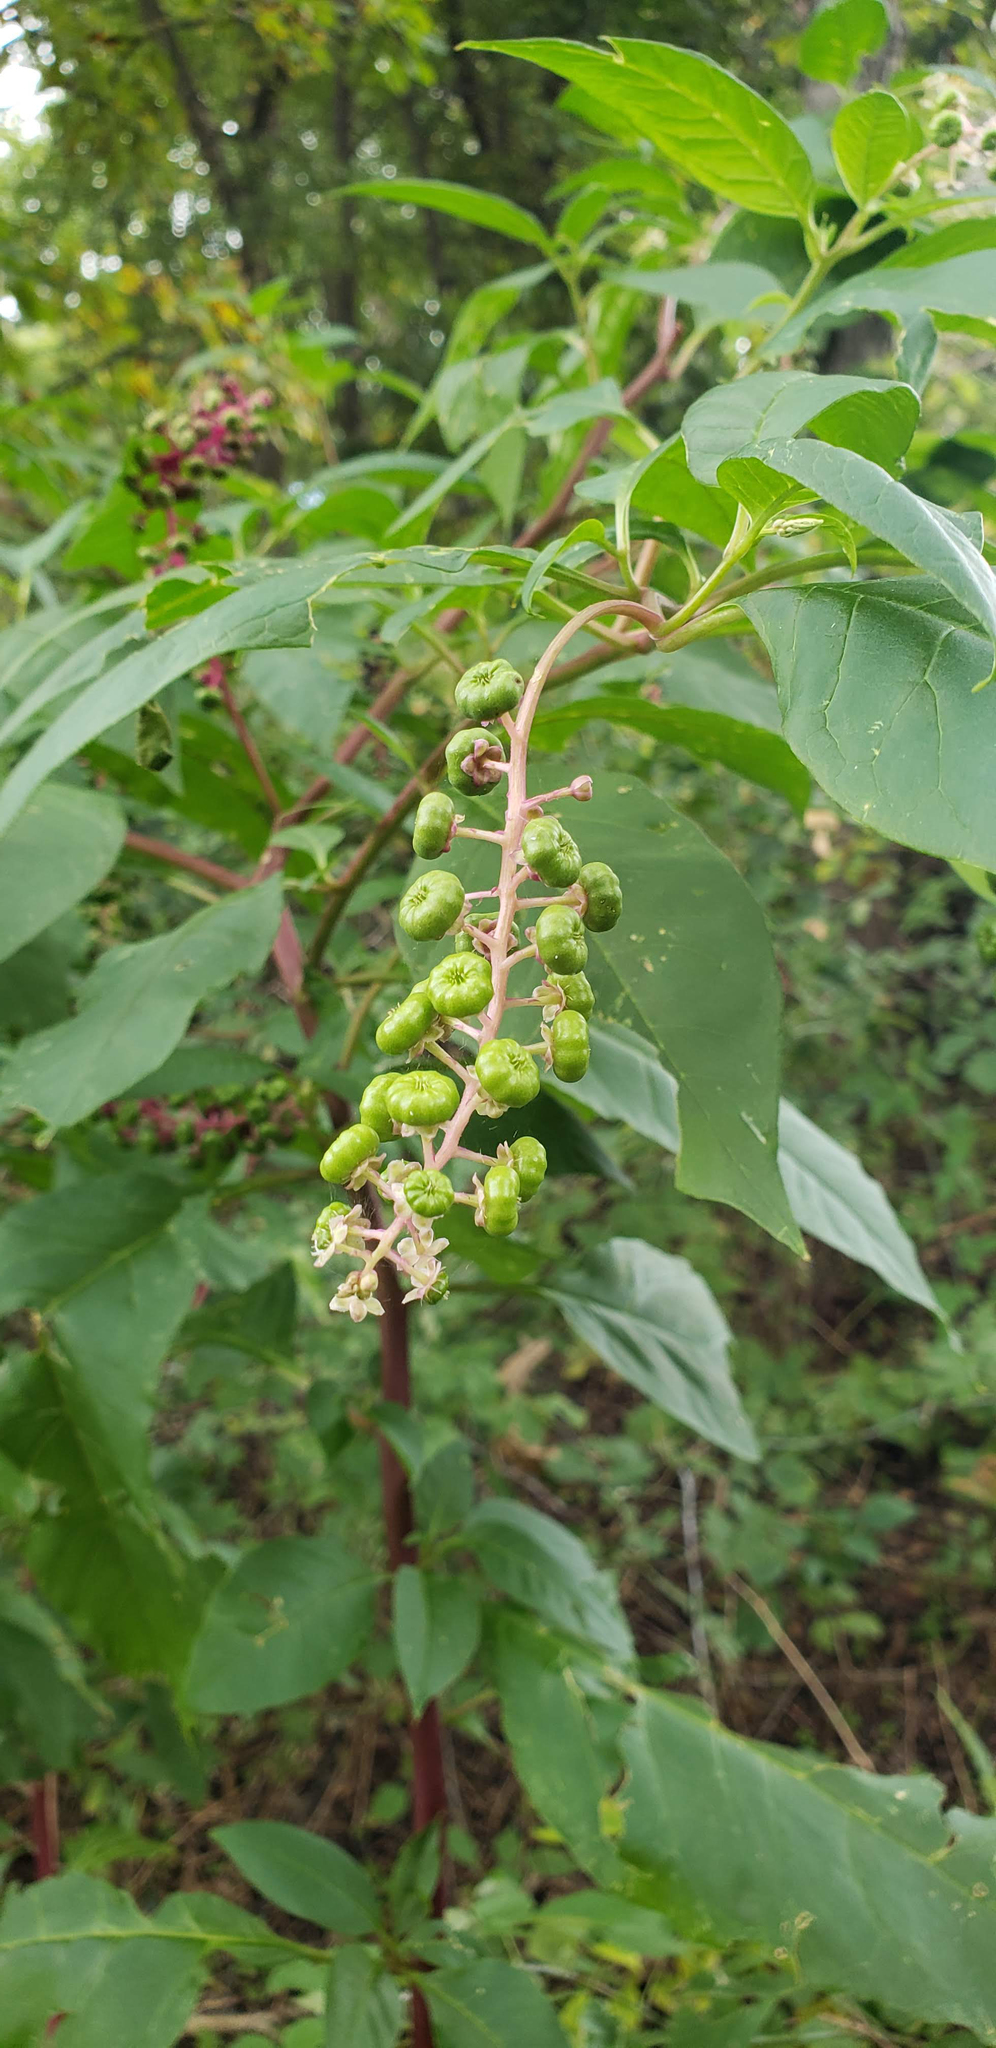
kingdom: Plantae
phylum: Tracheophyta
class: Magnoliopsida
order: Caryophyllales
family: Phytolaccaceae
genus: Phytolacca
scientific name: Phytolacca americana
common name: American pokeweed
